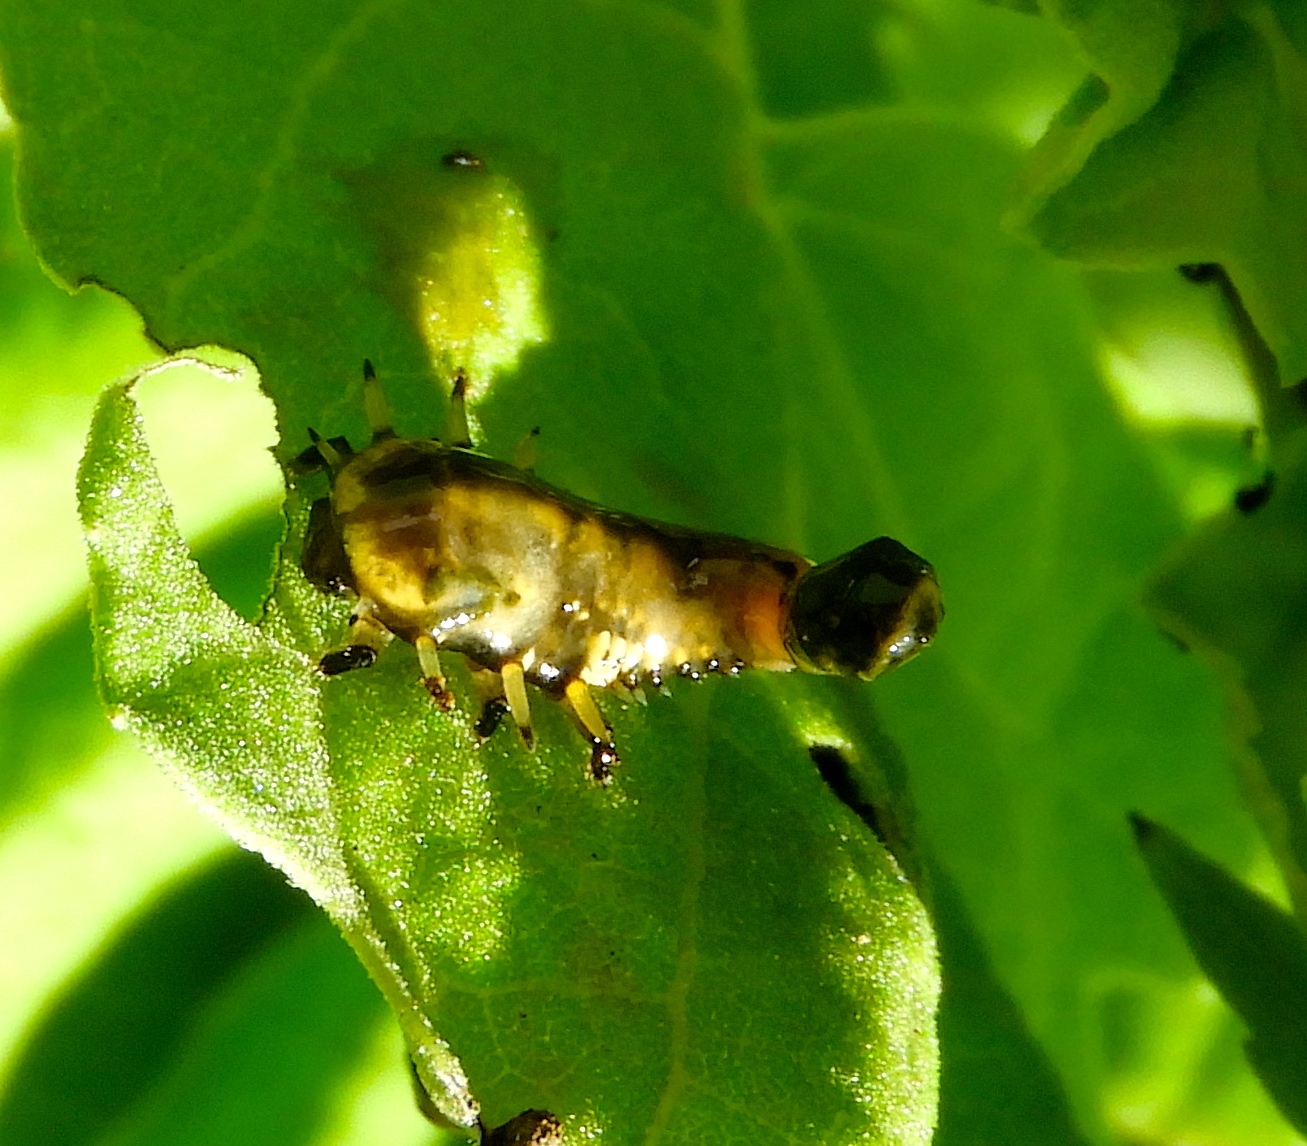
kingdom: Animalia
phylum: Arthropoda
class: Insecta
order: Coleoptera
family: Chrysomelidae
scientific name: Chrysomelidae
